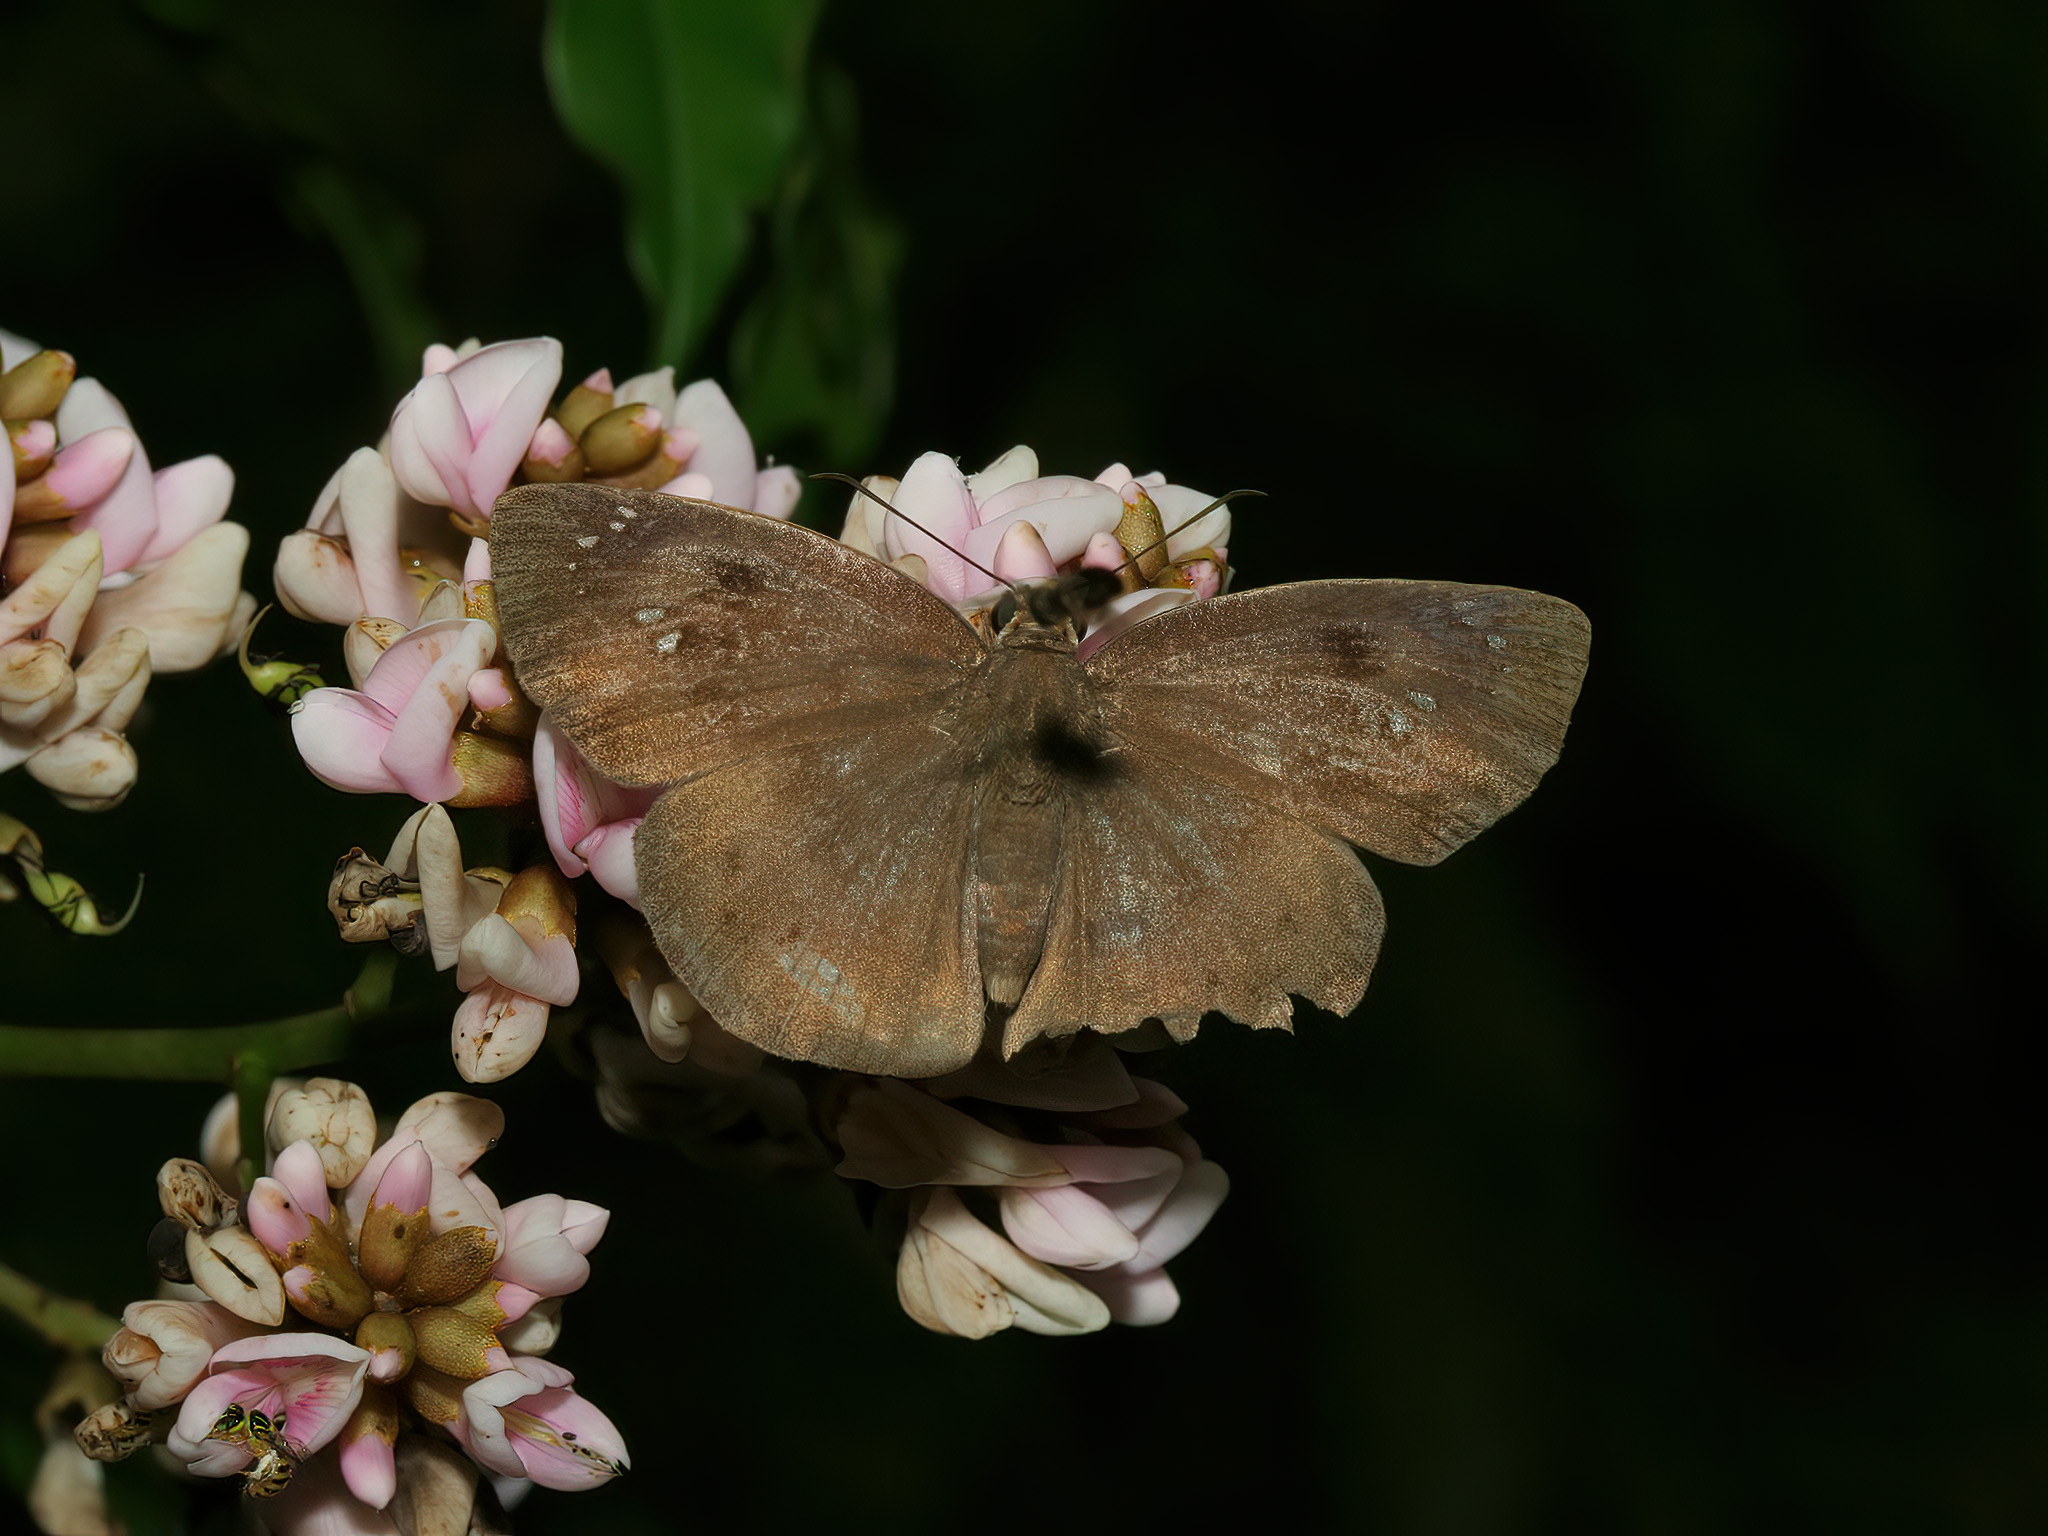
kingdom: Animalia
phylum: Arthropoda
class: Insecta
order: Lepidoptera
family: Hesperiidae
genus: Tagiades
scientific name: Tagiades japetus
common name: Pied flat
